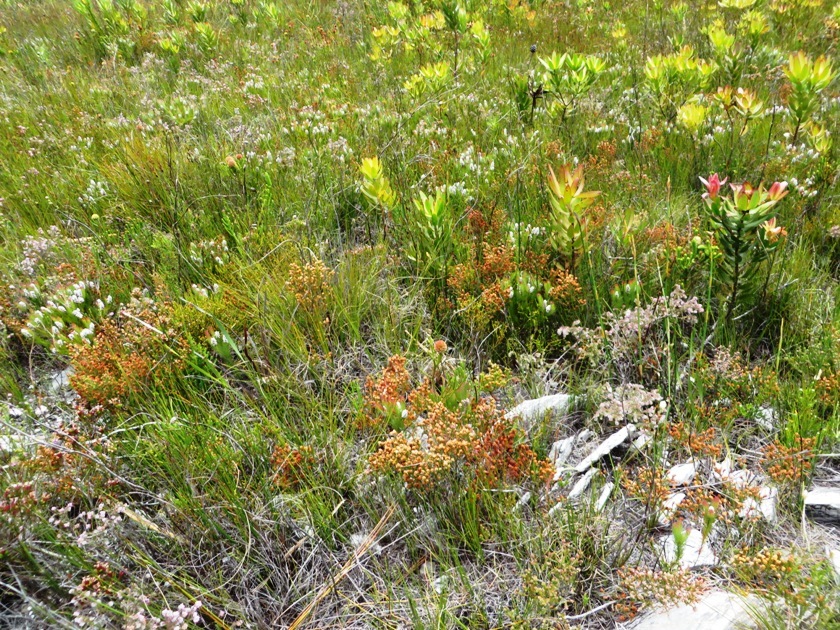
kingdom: Plantae
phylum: Tracheophyta
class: Magnoliopsida
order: Proteales
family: Proteaceae
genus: Spatalla
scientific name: Spatalla mollis
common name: Woolly spoon
